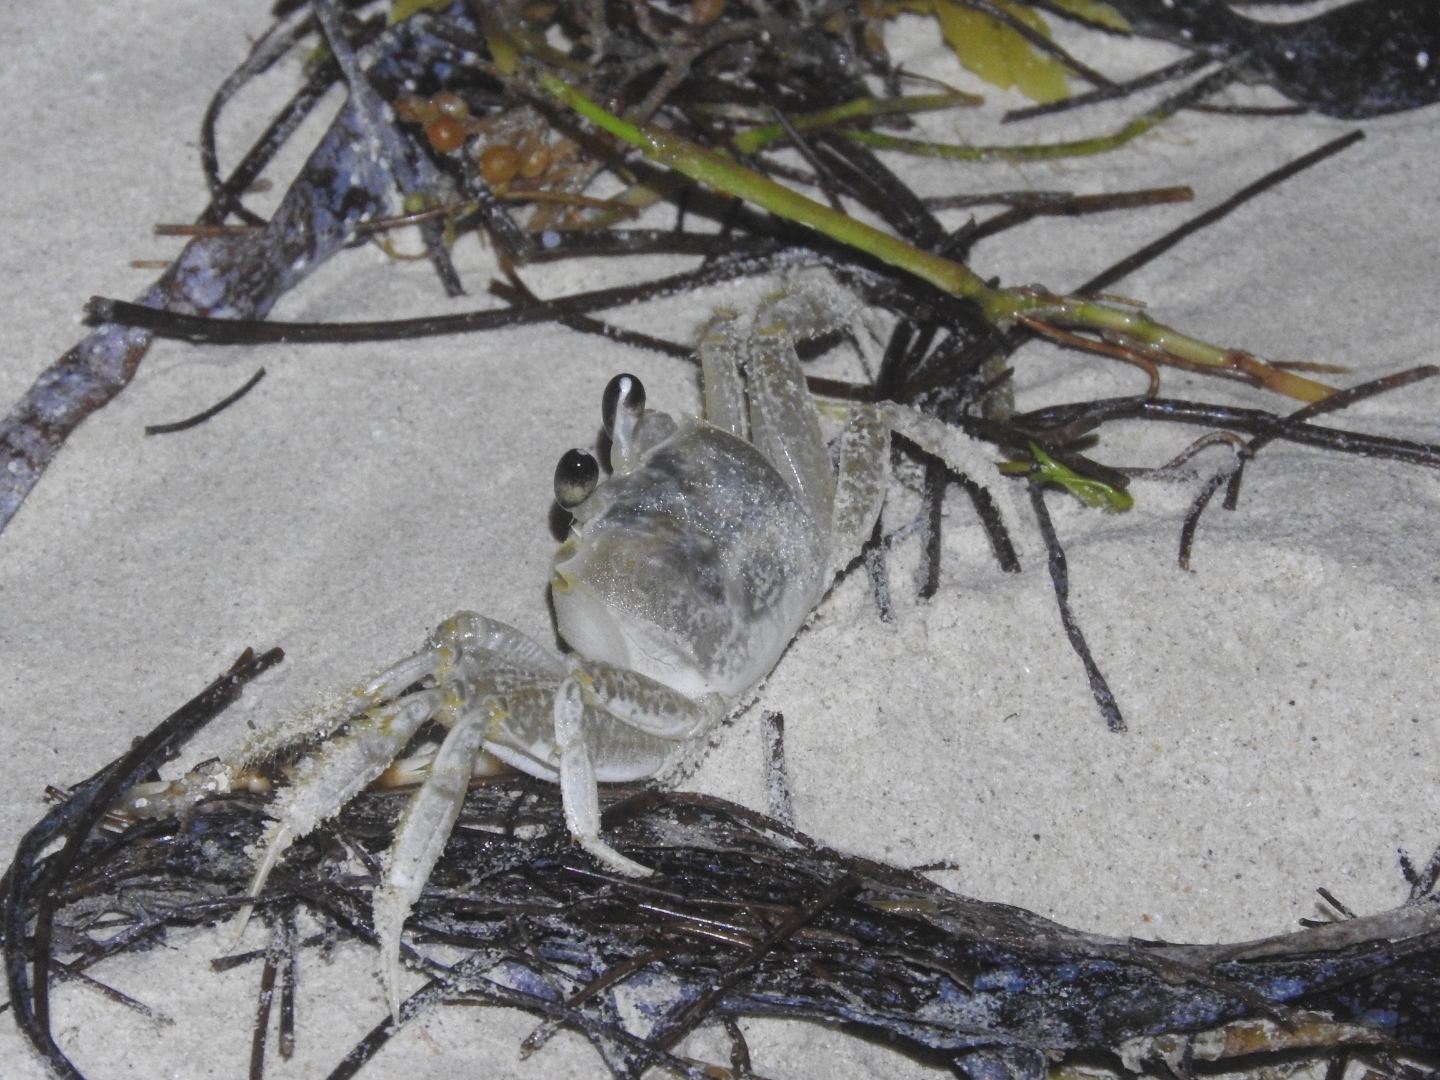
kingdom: Animalia
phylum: Arthropoda
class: Malacostraca
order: Decapoda
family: Ocypodidae
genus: Ocypode
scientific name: Ocypode quadrata
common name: Ghost crab
